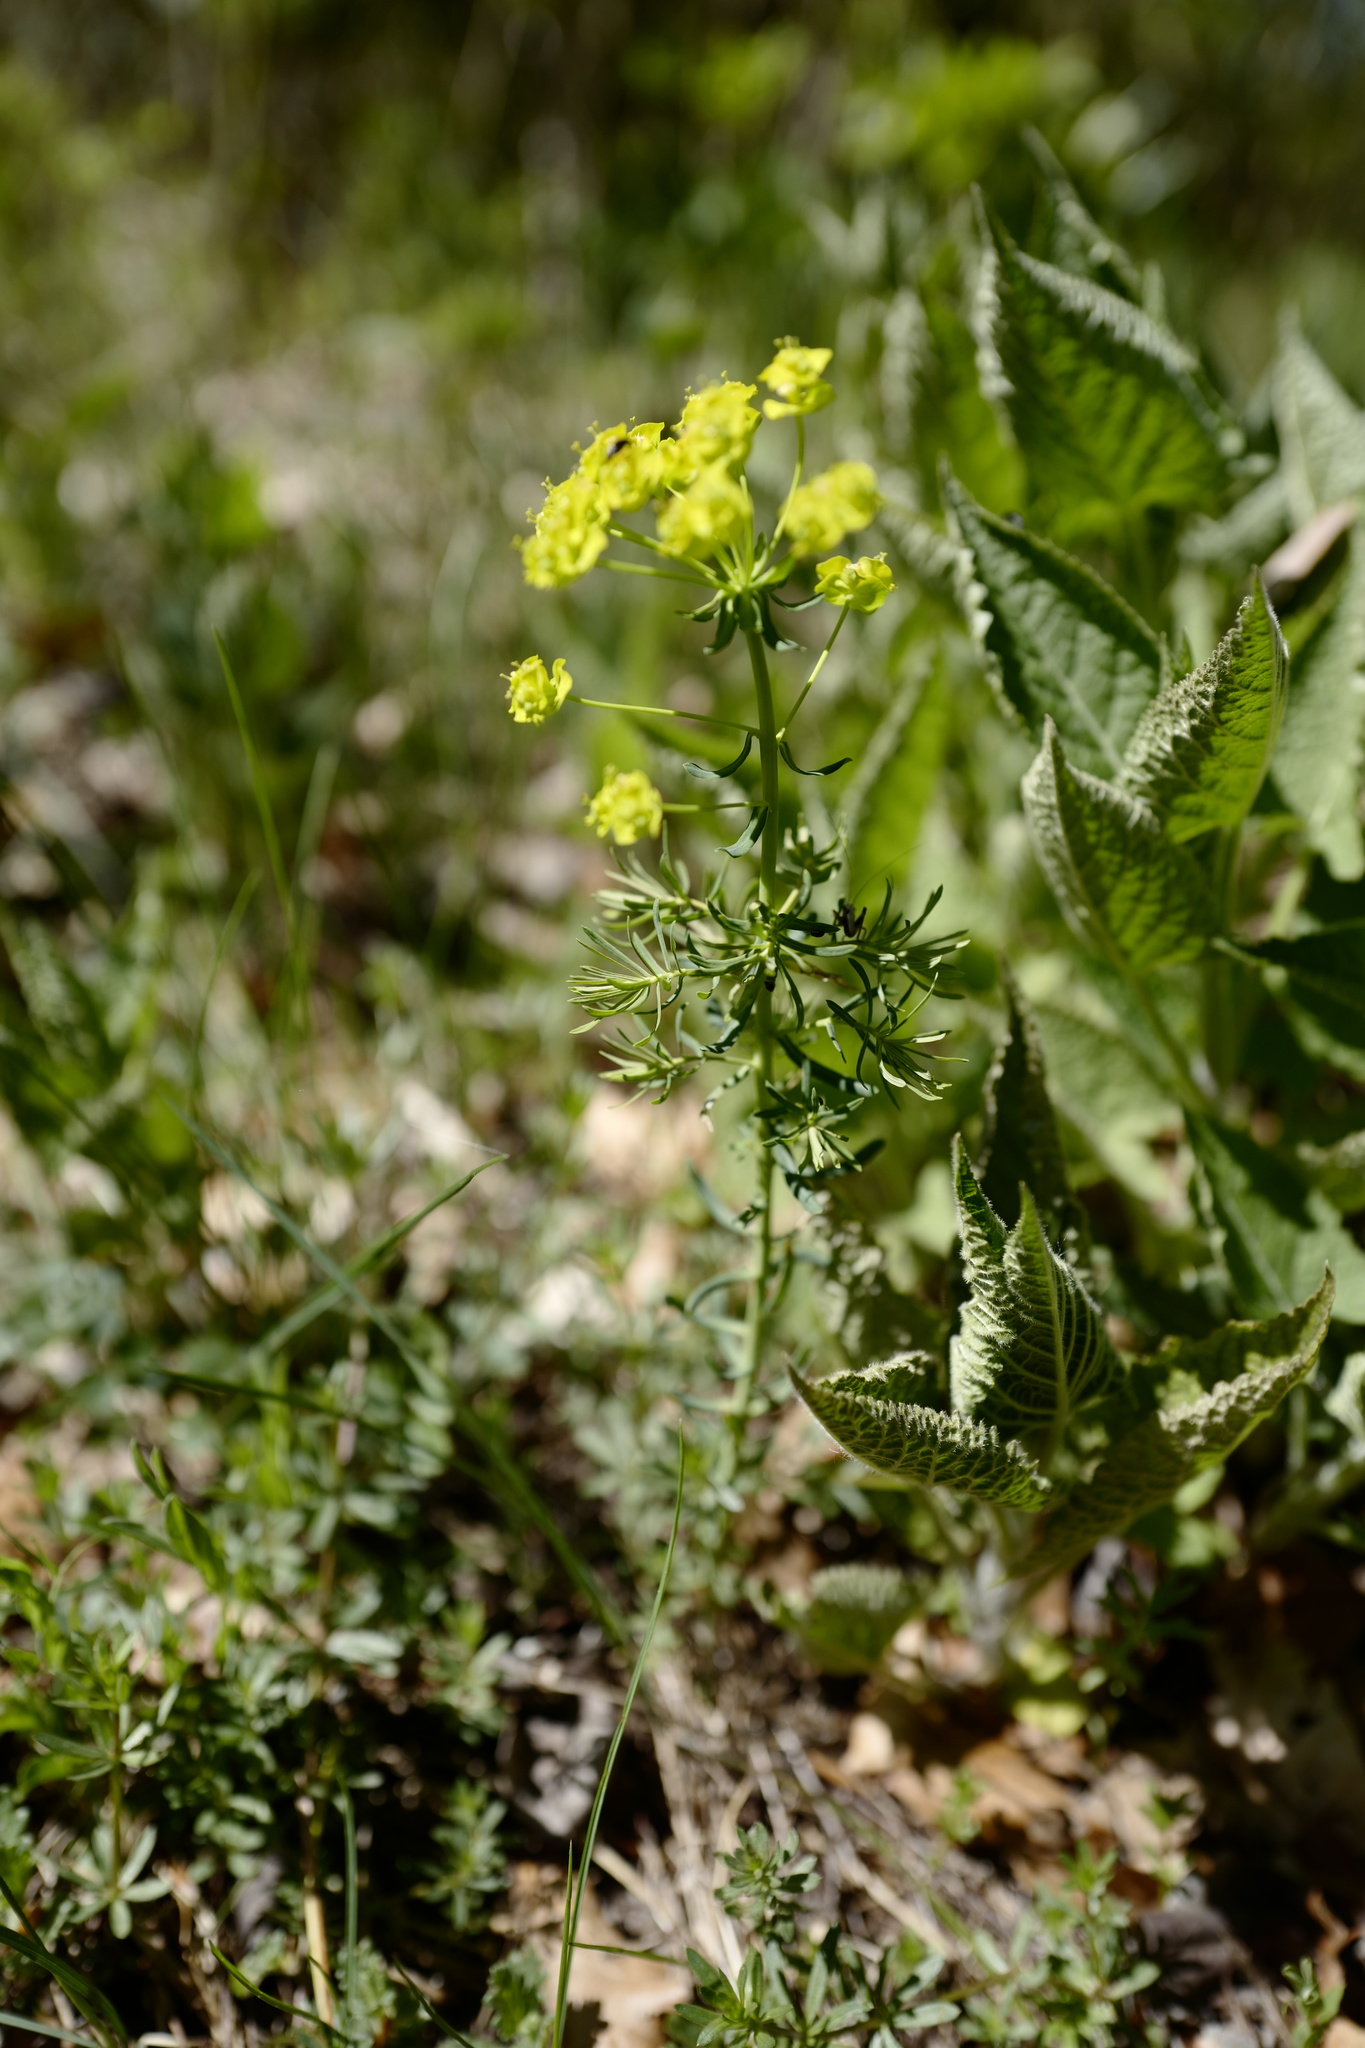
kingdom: Plantae
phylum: Tracheophyta
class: Magnoliopsida
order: Malpighiales
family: Euphorbiaceae
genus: Euphorbia
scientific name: Euphorbia cyparissias
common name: Cypress spurge
